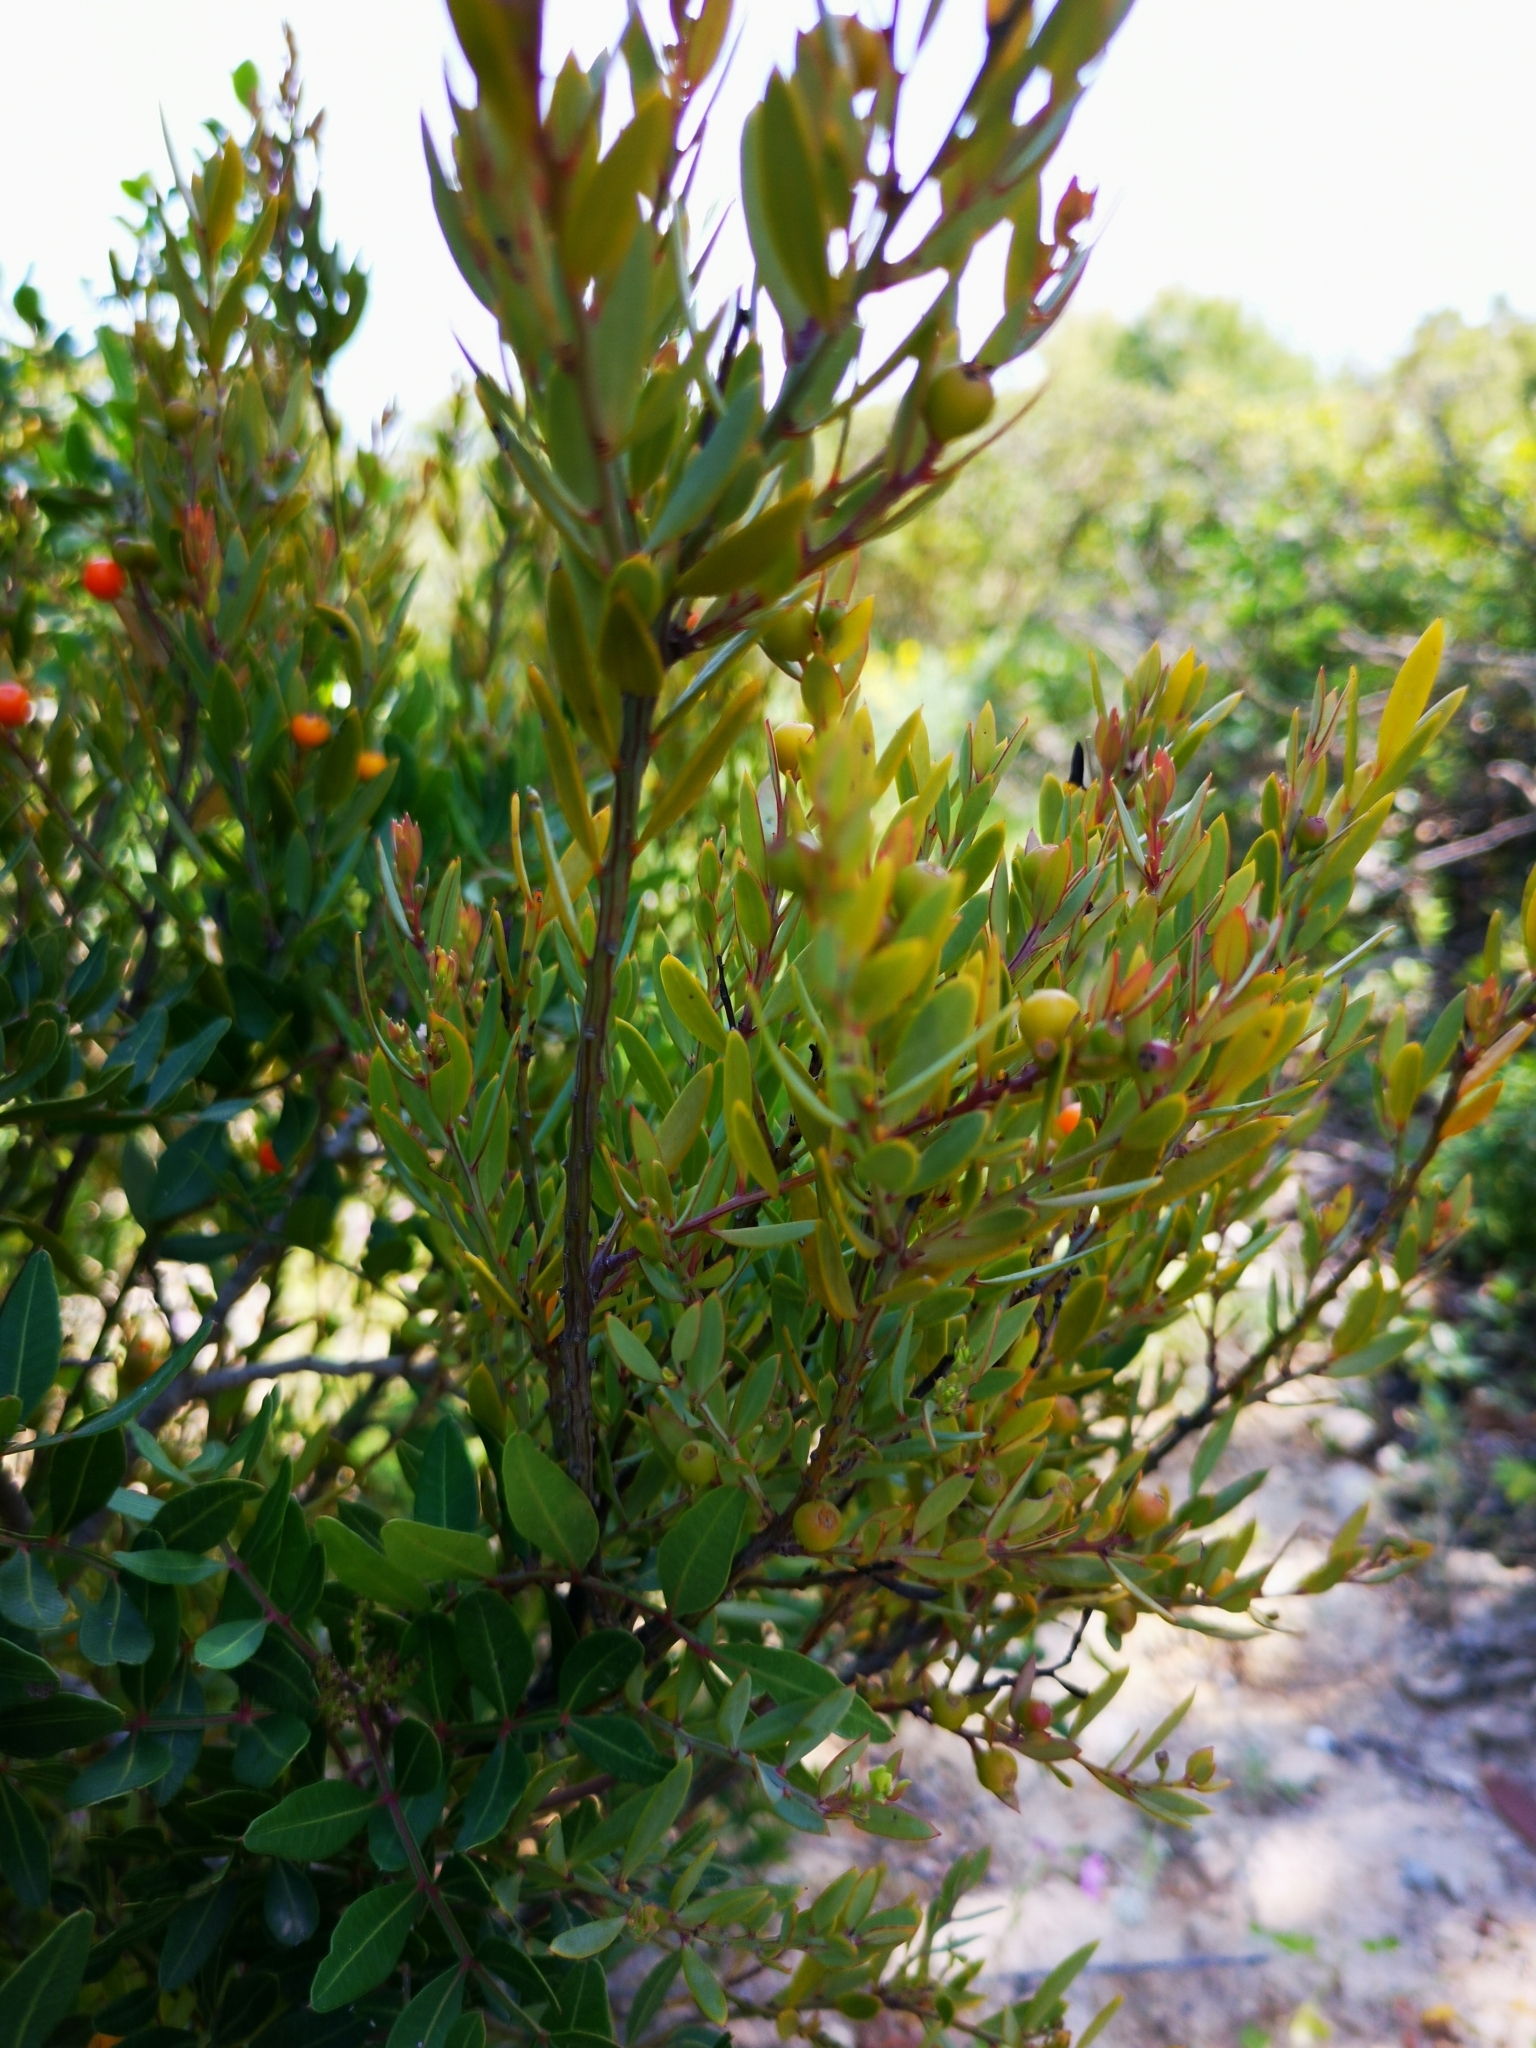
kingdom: Plantae
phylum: Tracheophyta
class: Magnoliopsida
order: Santalales
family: Santalaceae
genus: Osyris
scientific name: Osyris lanceolata
